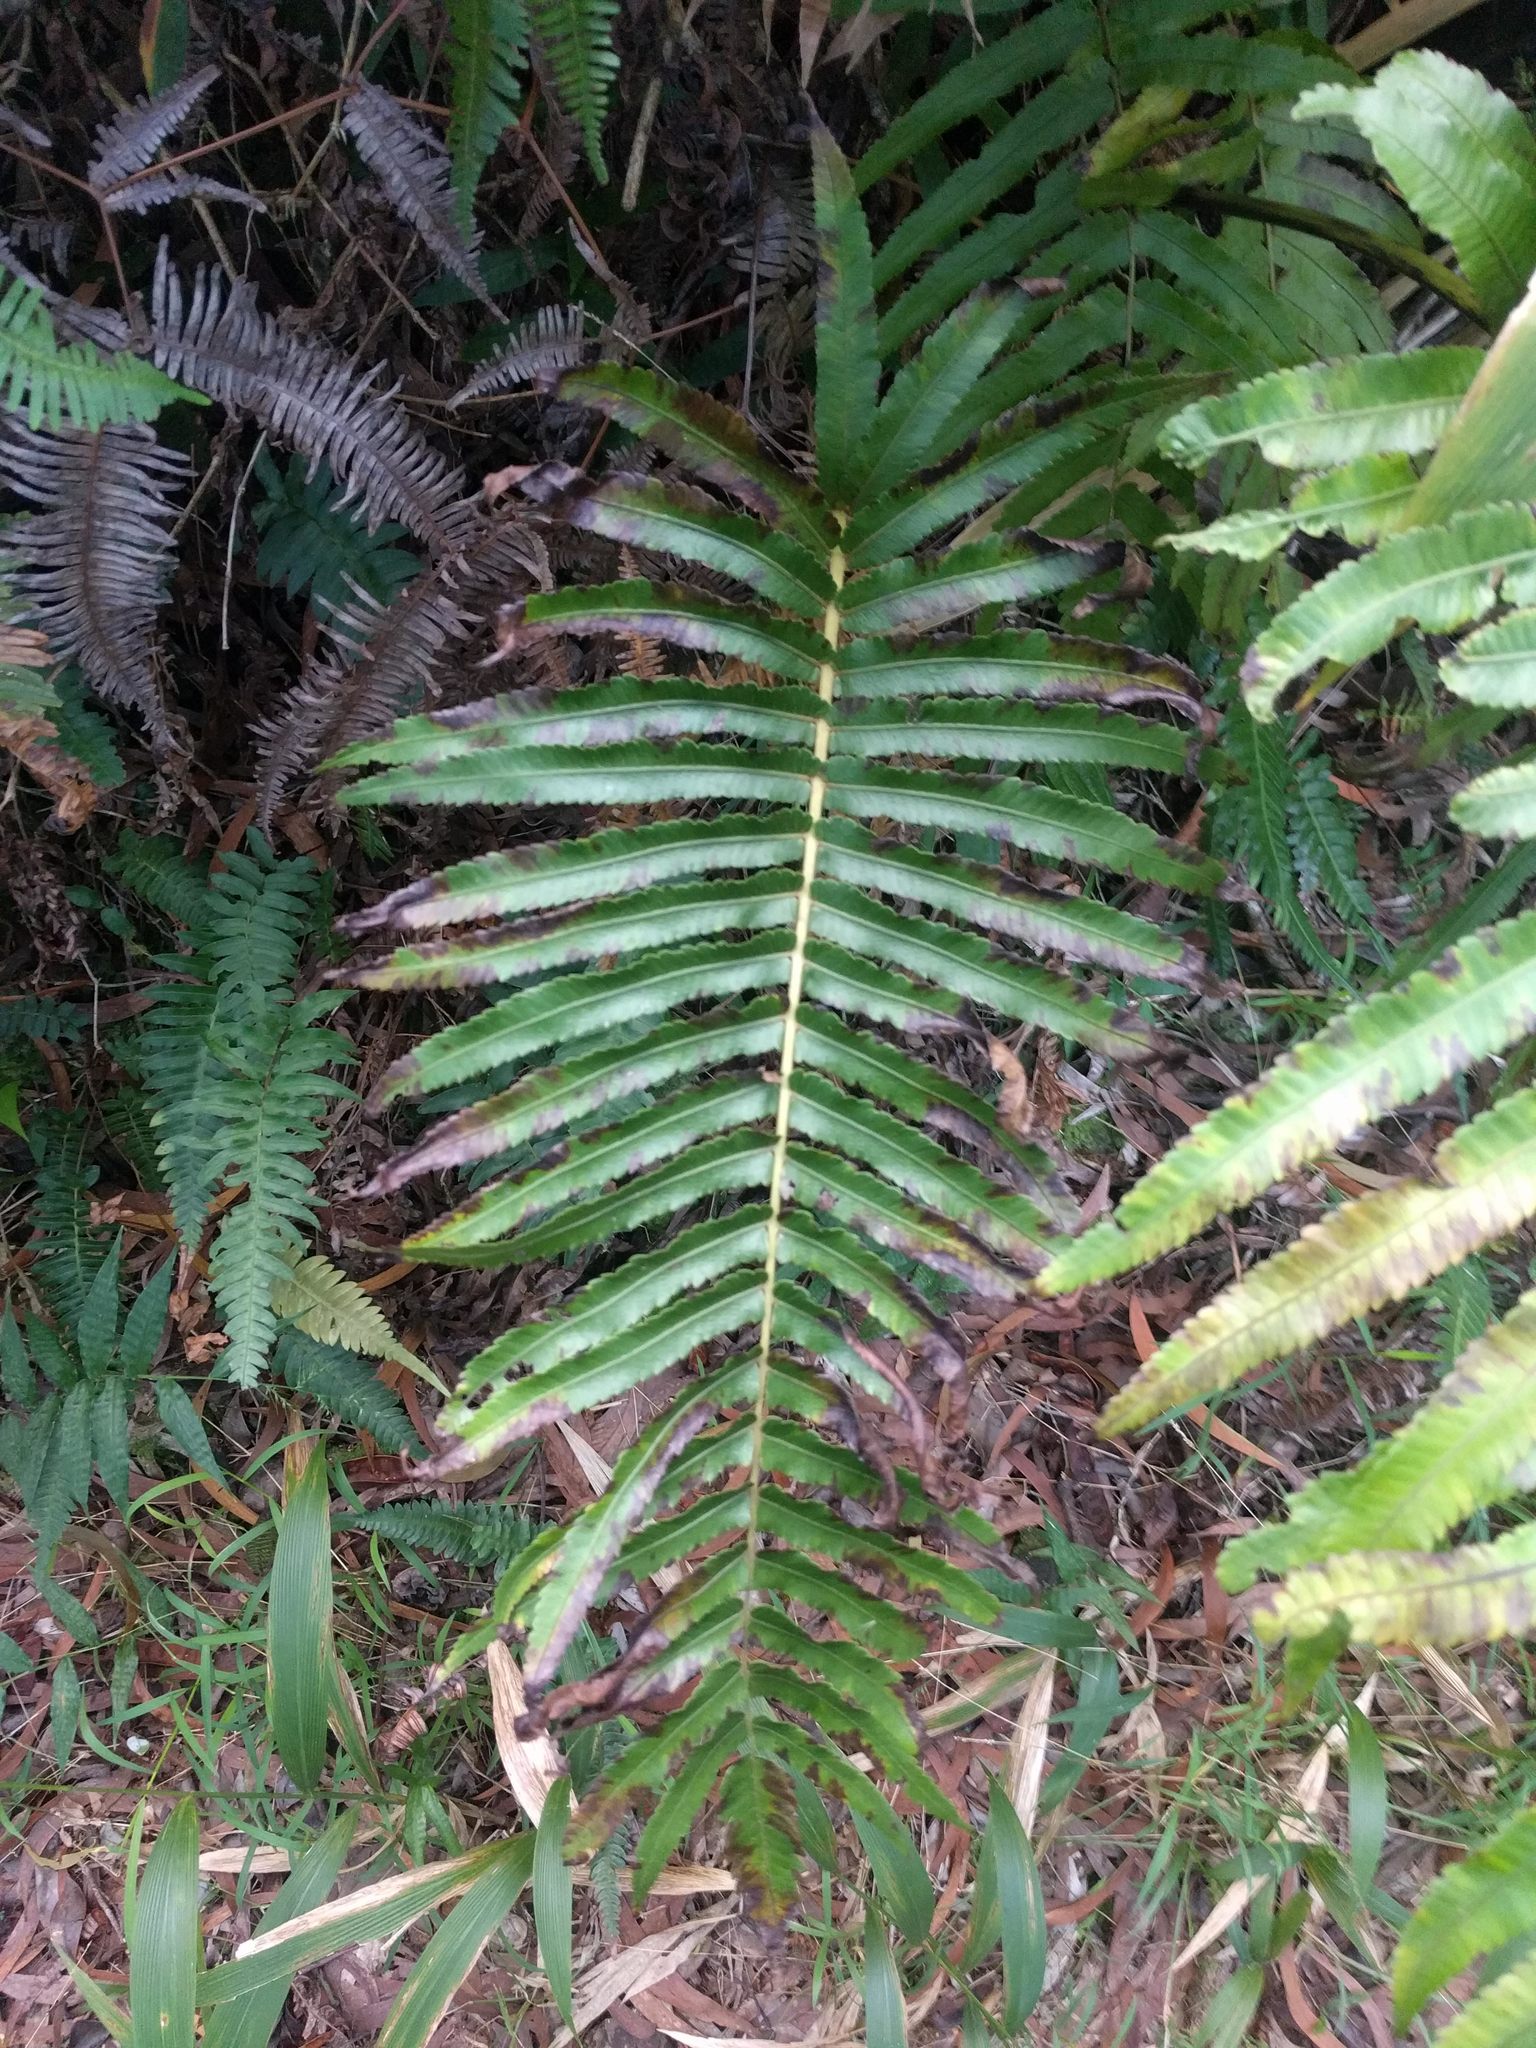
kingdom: Plantae
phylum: Tracheophyta
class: Polypodiopsida
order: Polypodiales
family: Thelypteridaceae
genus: Menisciopsis
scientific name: Menisciopsis cyatheoides
